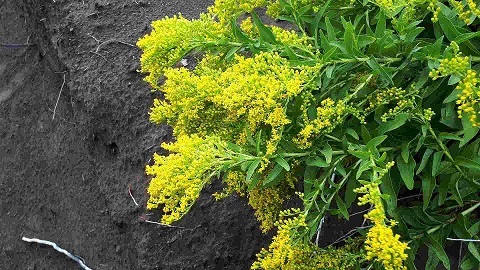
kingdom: Plantae
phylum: Tracheophyta
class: Magnoliopsida
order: Asterales
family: Asteraceae
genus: Solidago
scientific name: Solidago azorica
